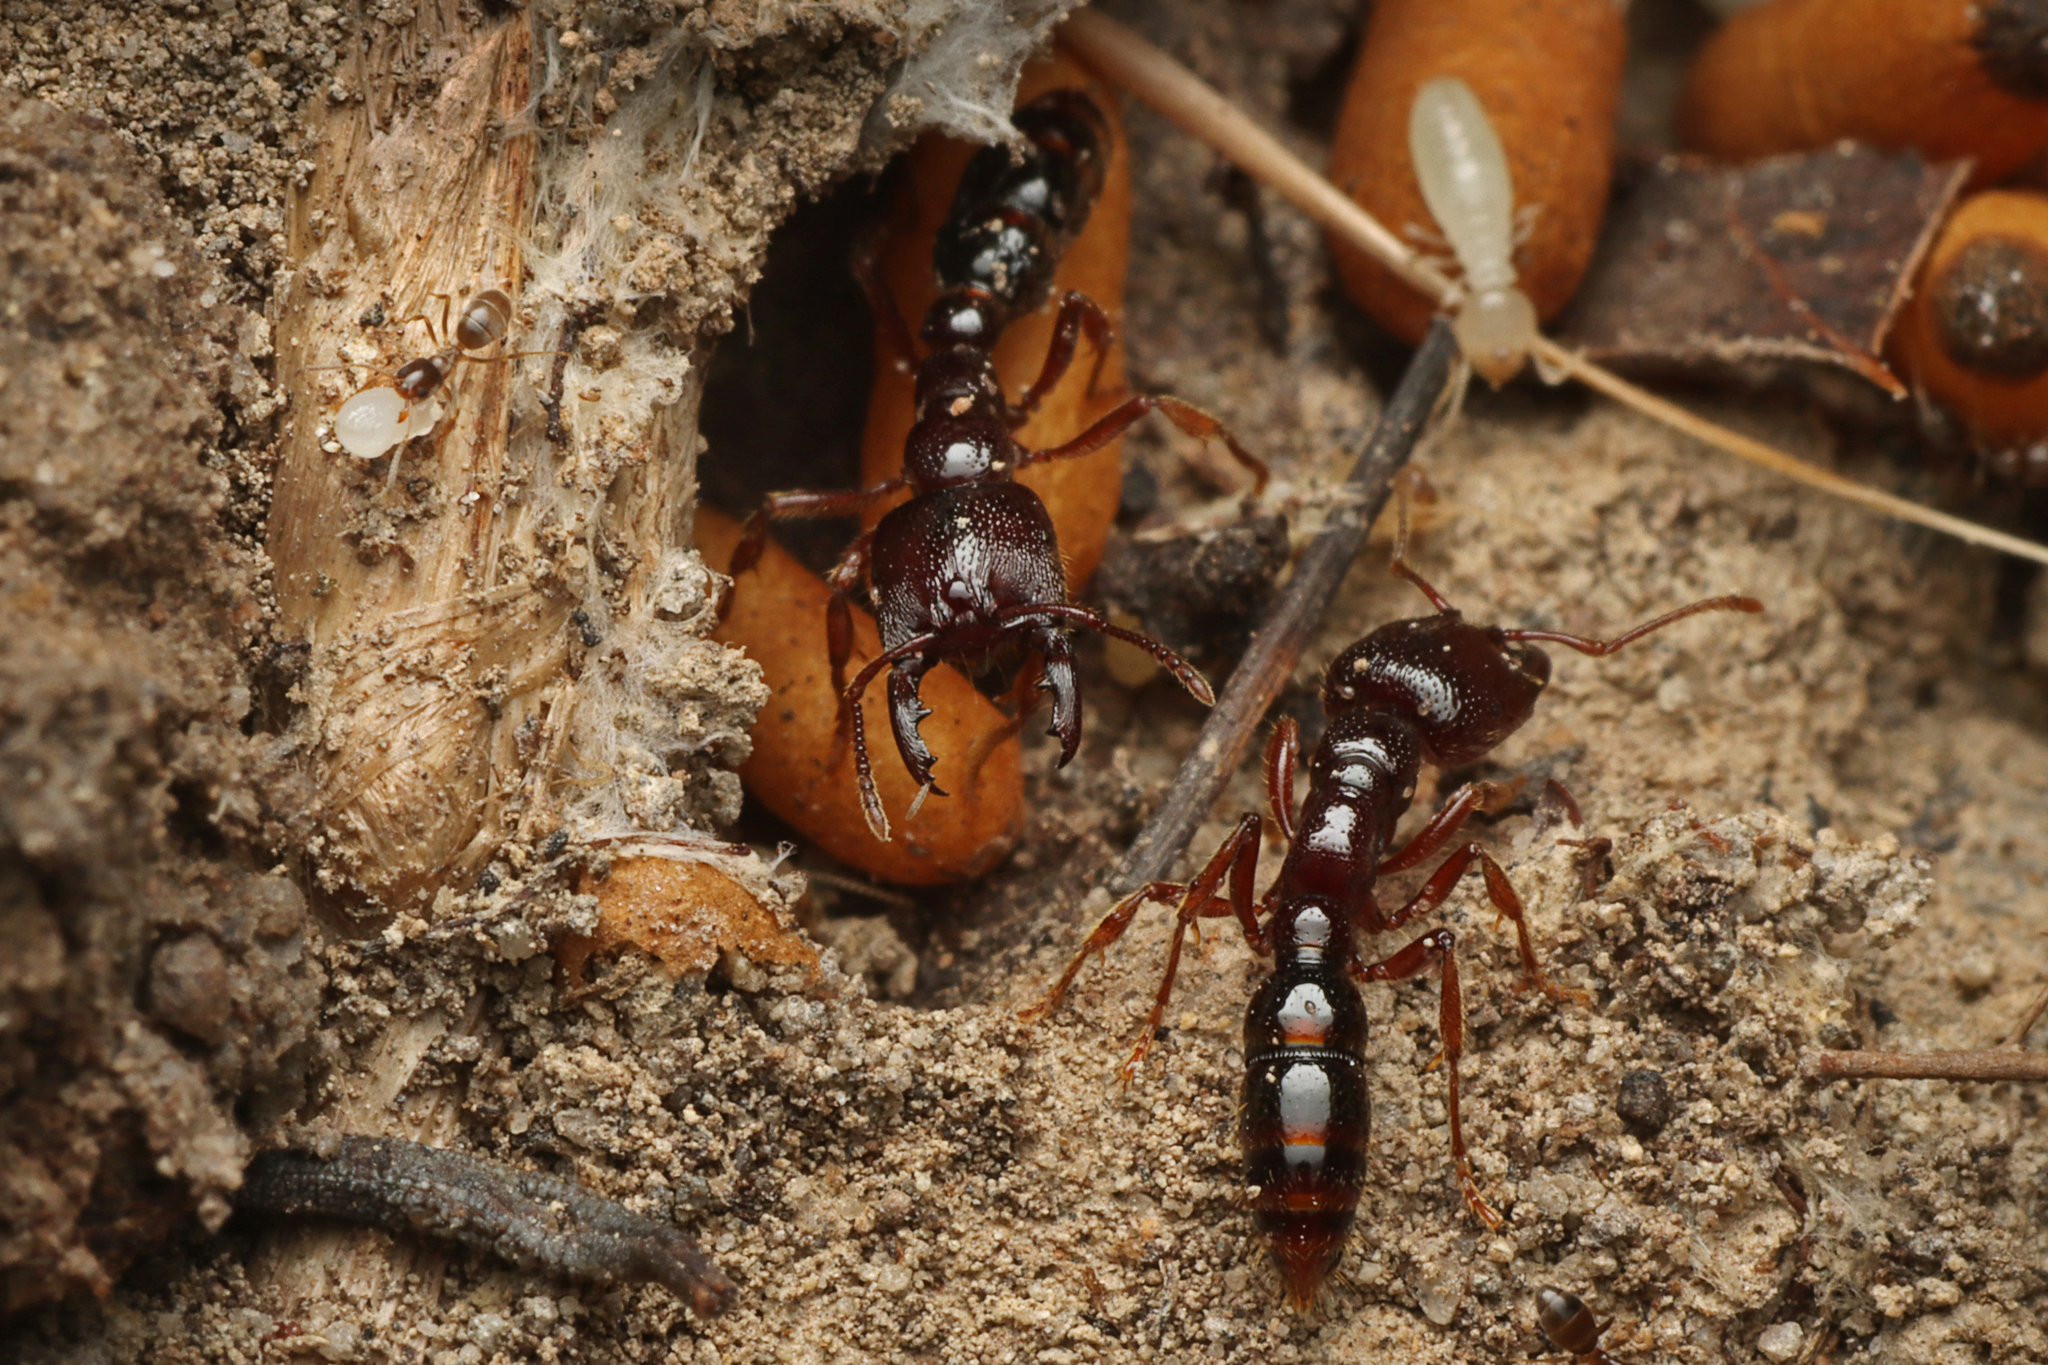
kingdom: Animalia
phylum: Arthropoda
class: Insecta
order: Hymenoptera
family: Formicidae
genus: Amblyopone
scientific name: Amblyopone australis
